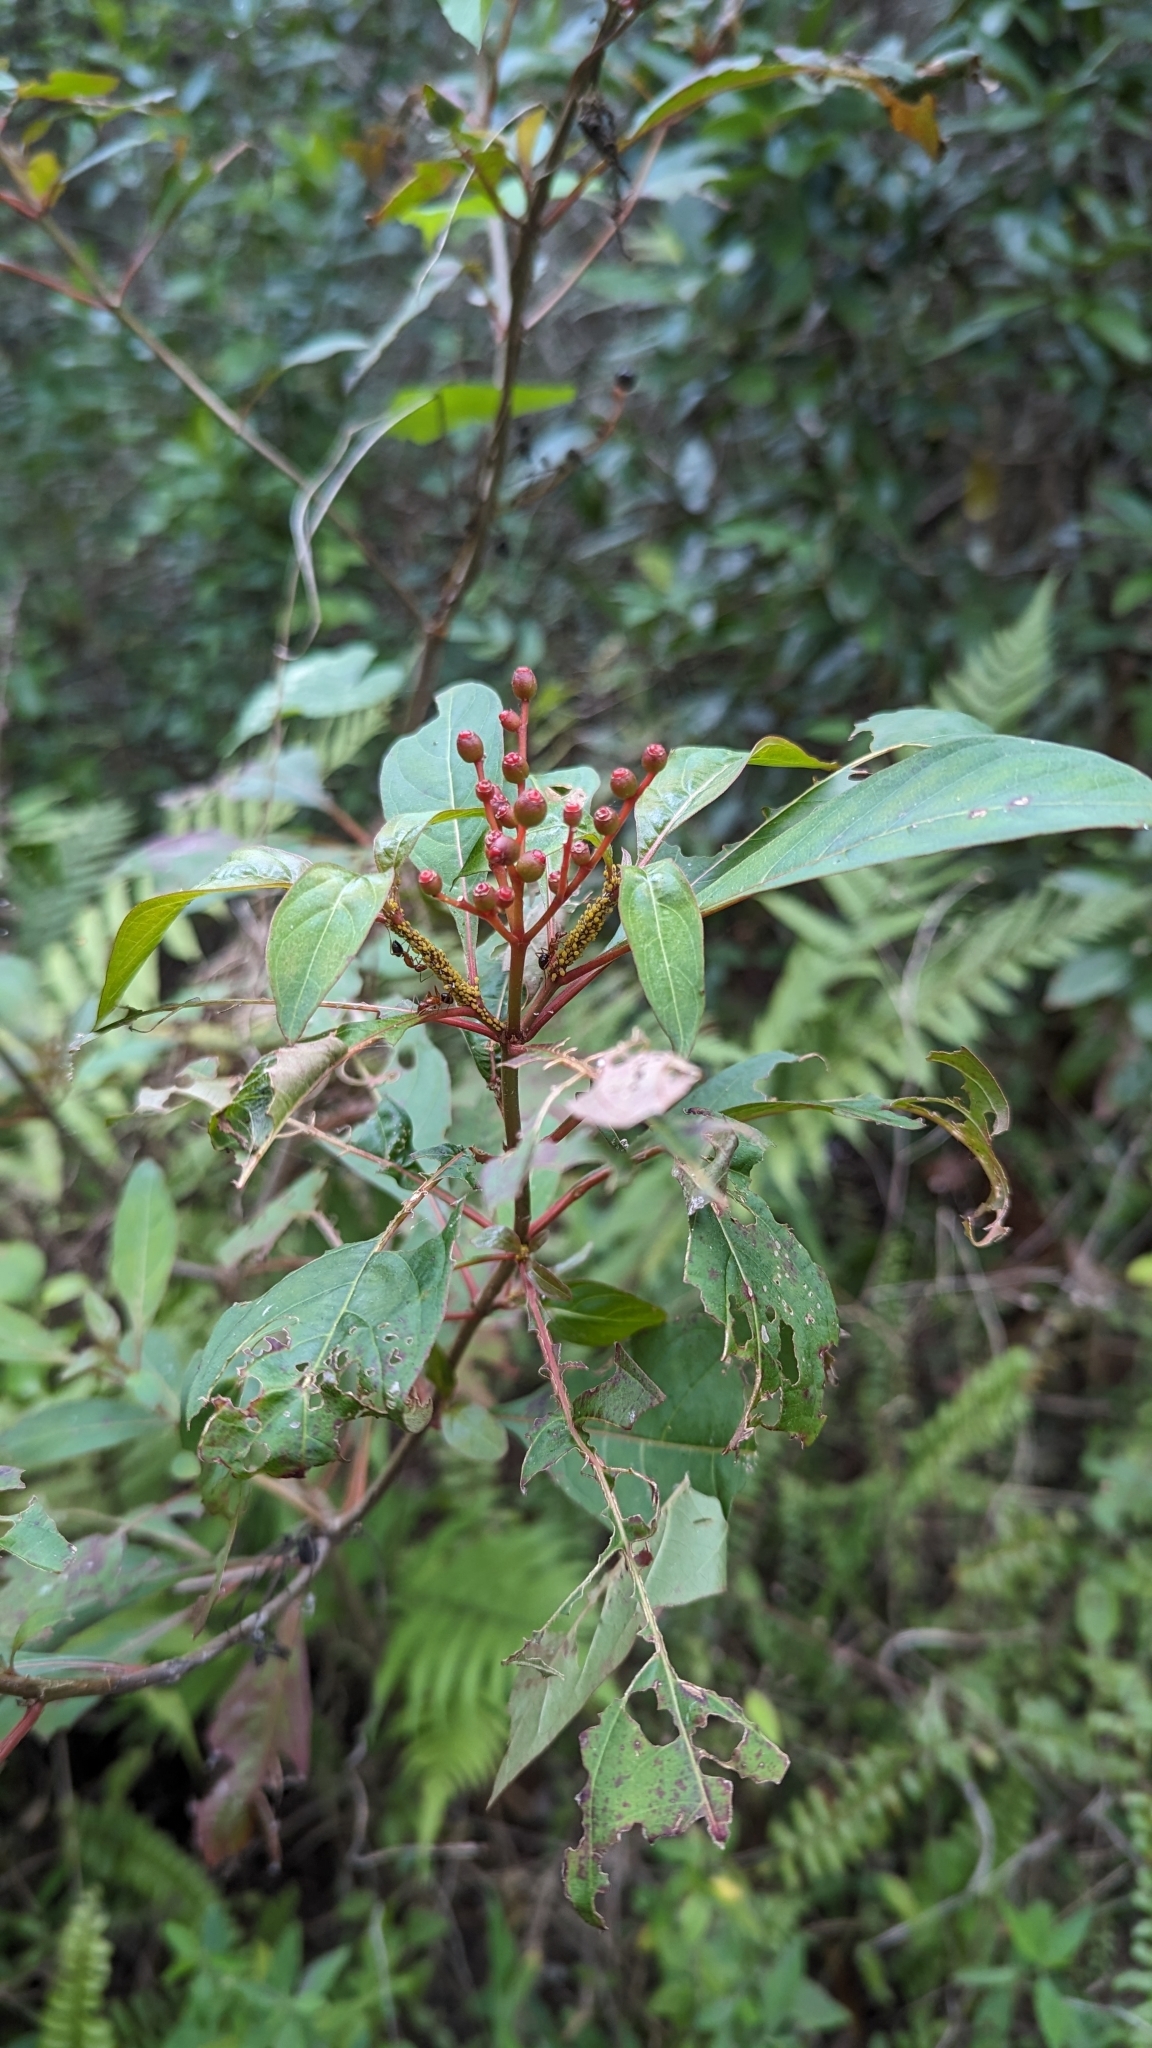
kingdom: Plantae
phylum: Tracheophyta
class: Magnoliopsida
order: Gentianales
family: Rubiaceae
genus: Hamelia
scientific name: Hamelia patens
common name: Redhead
